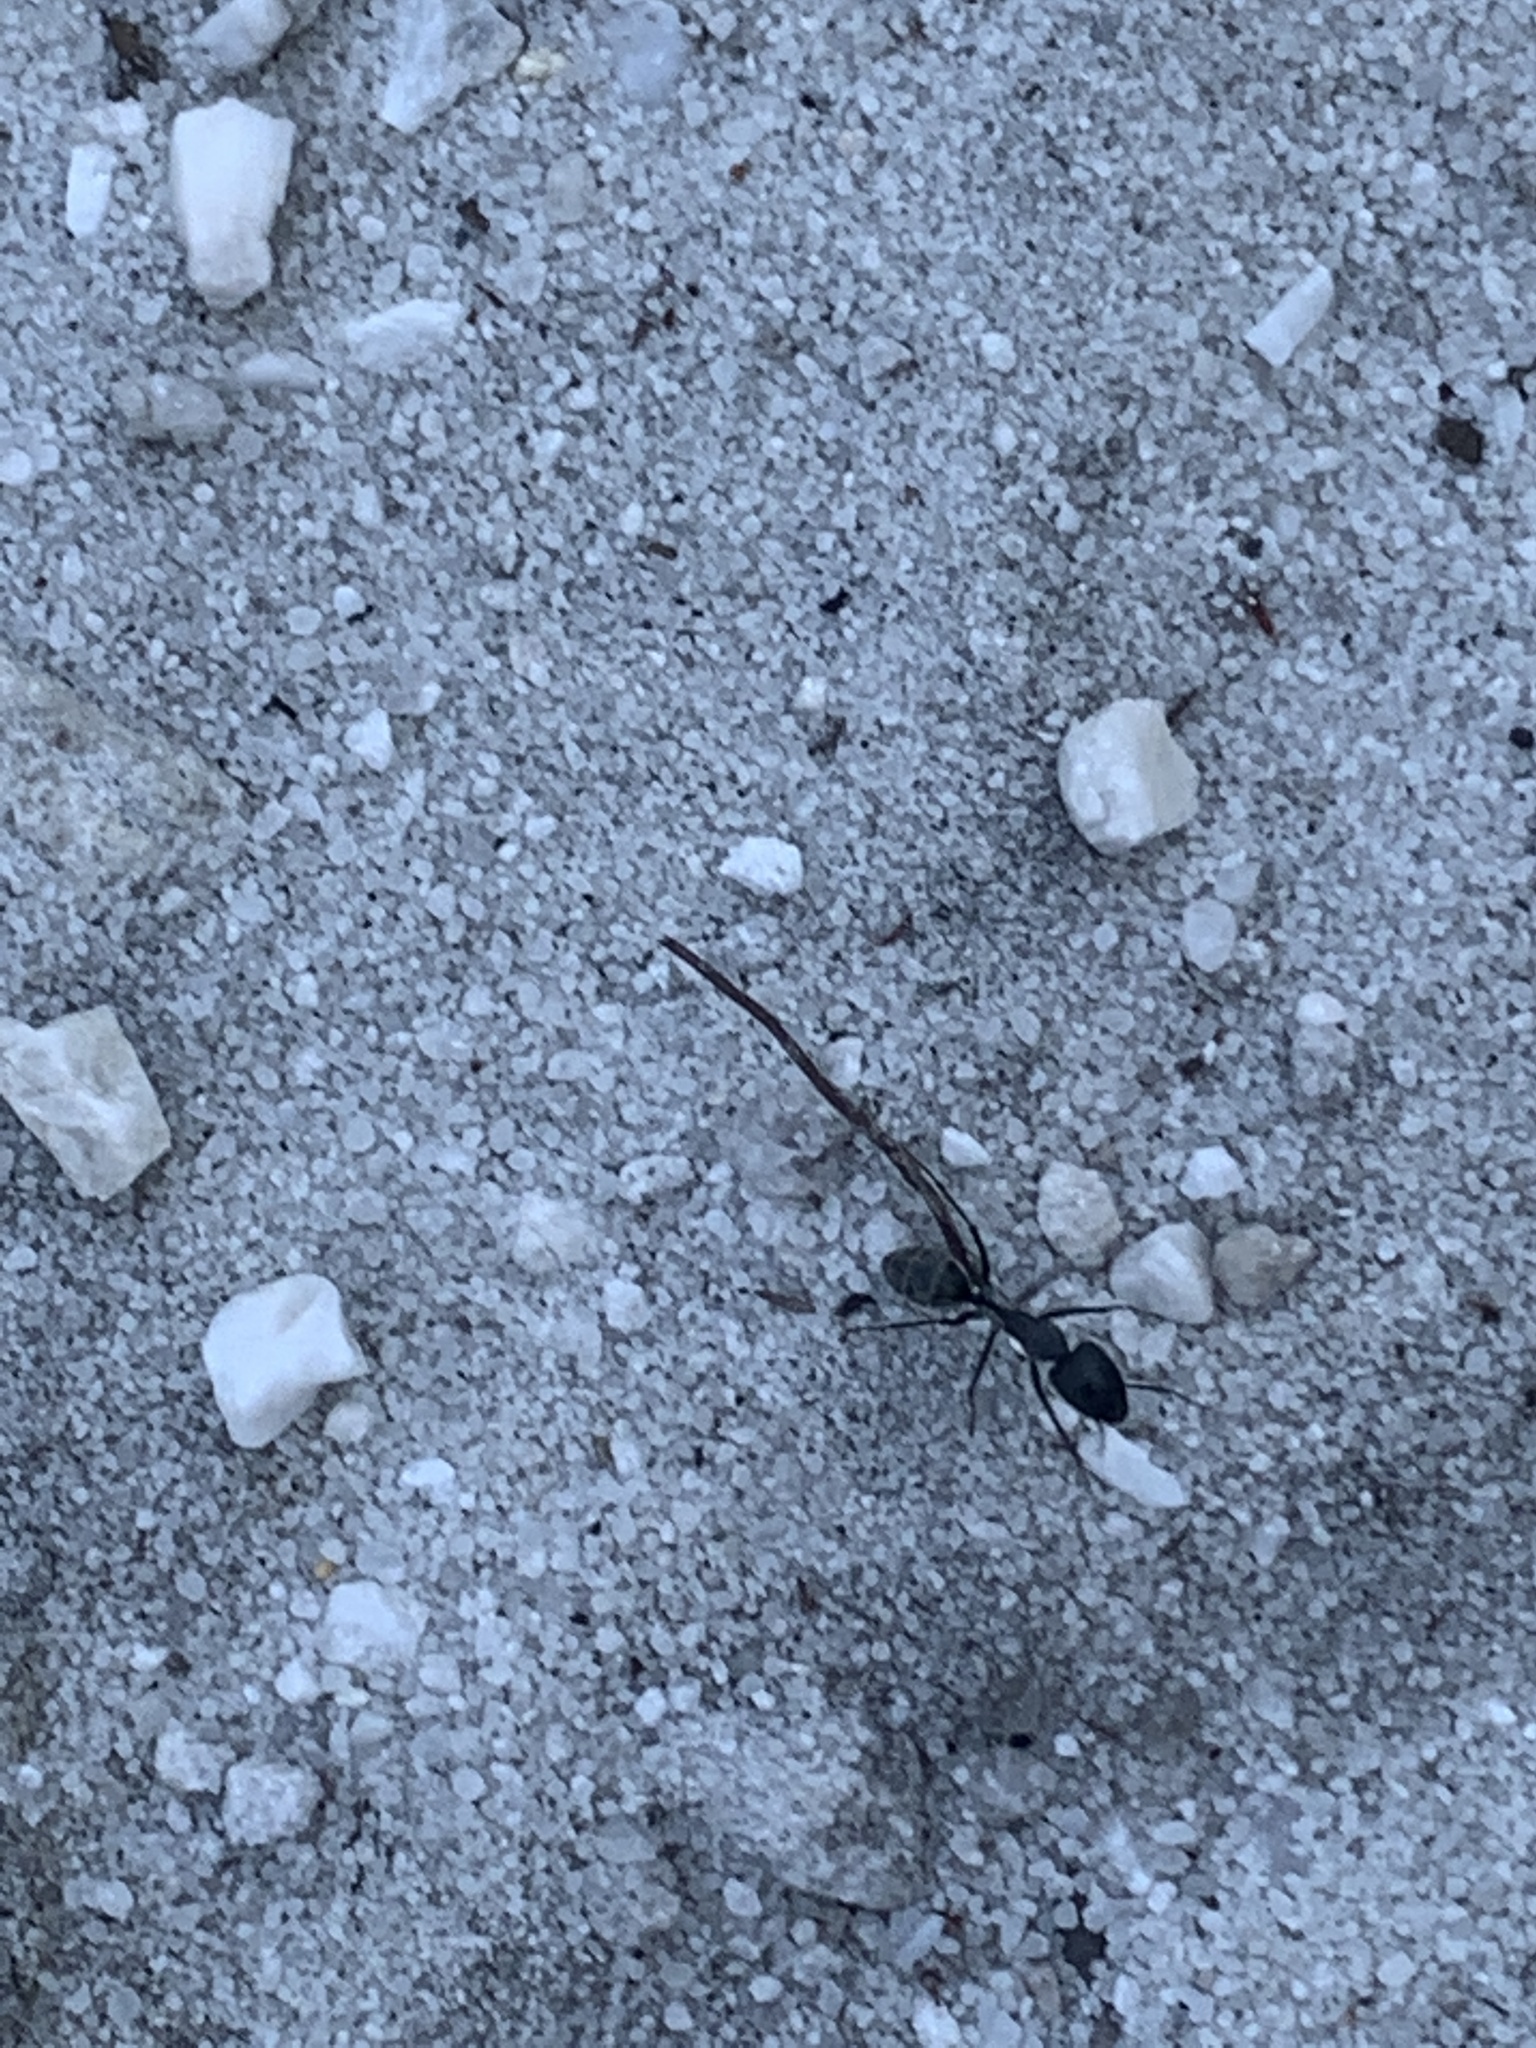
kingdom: Animalia
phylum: Arthropoda
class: Insecta
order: Hymenoptera
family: Formicidae
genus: Camponotus
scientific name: Camponotus angusticeps
